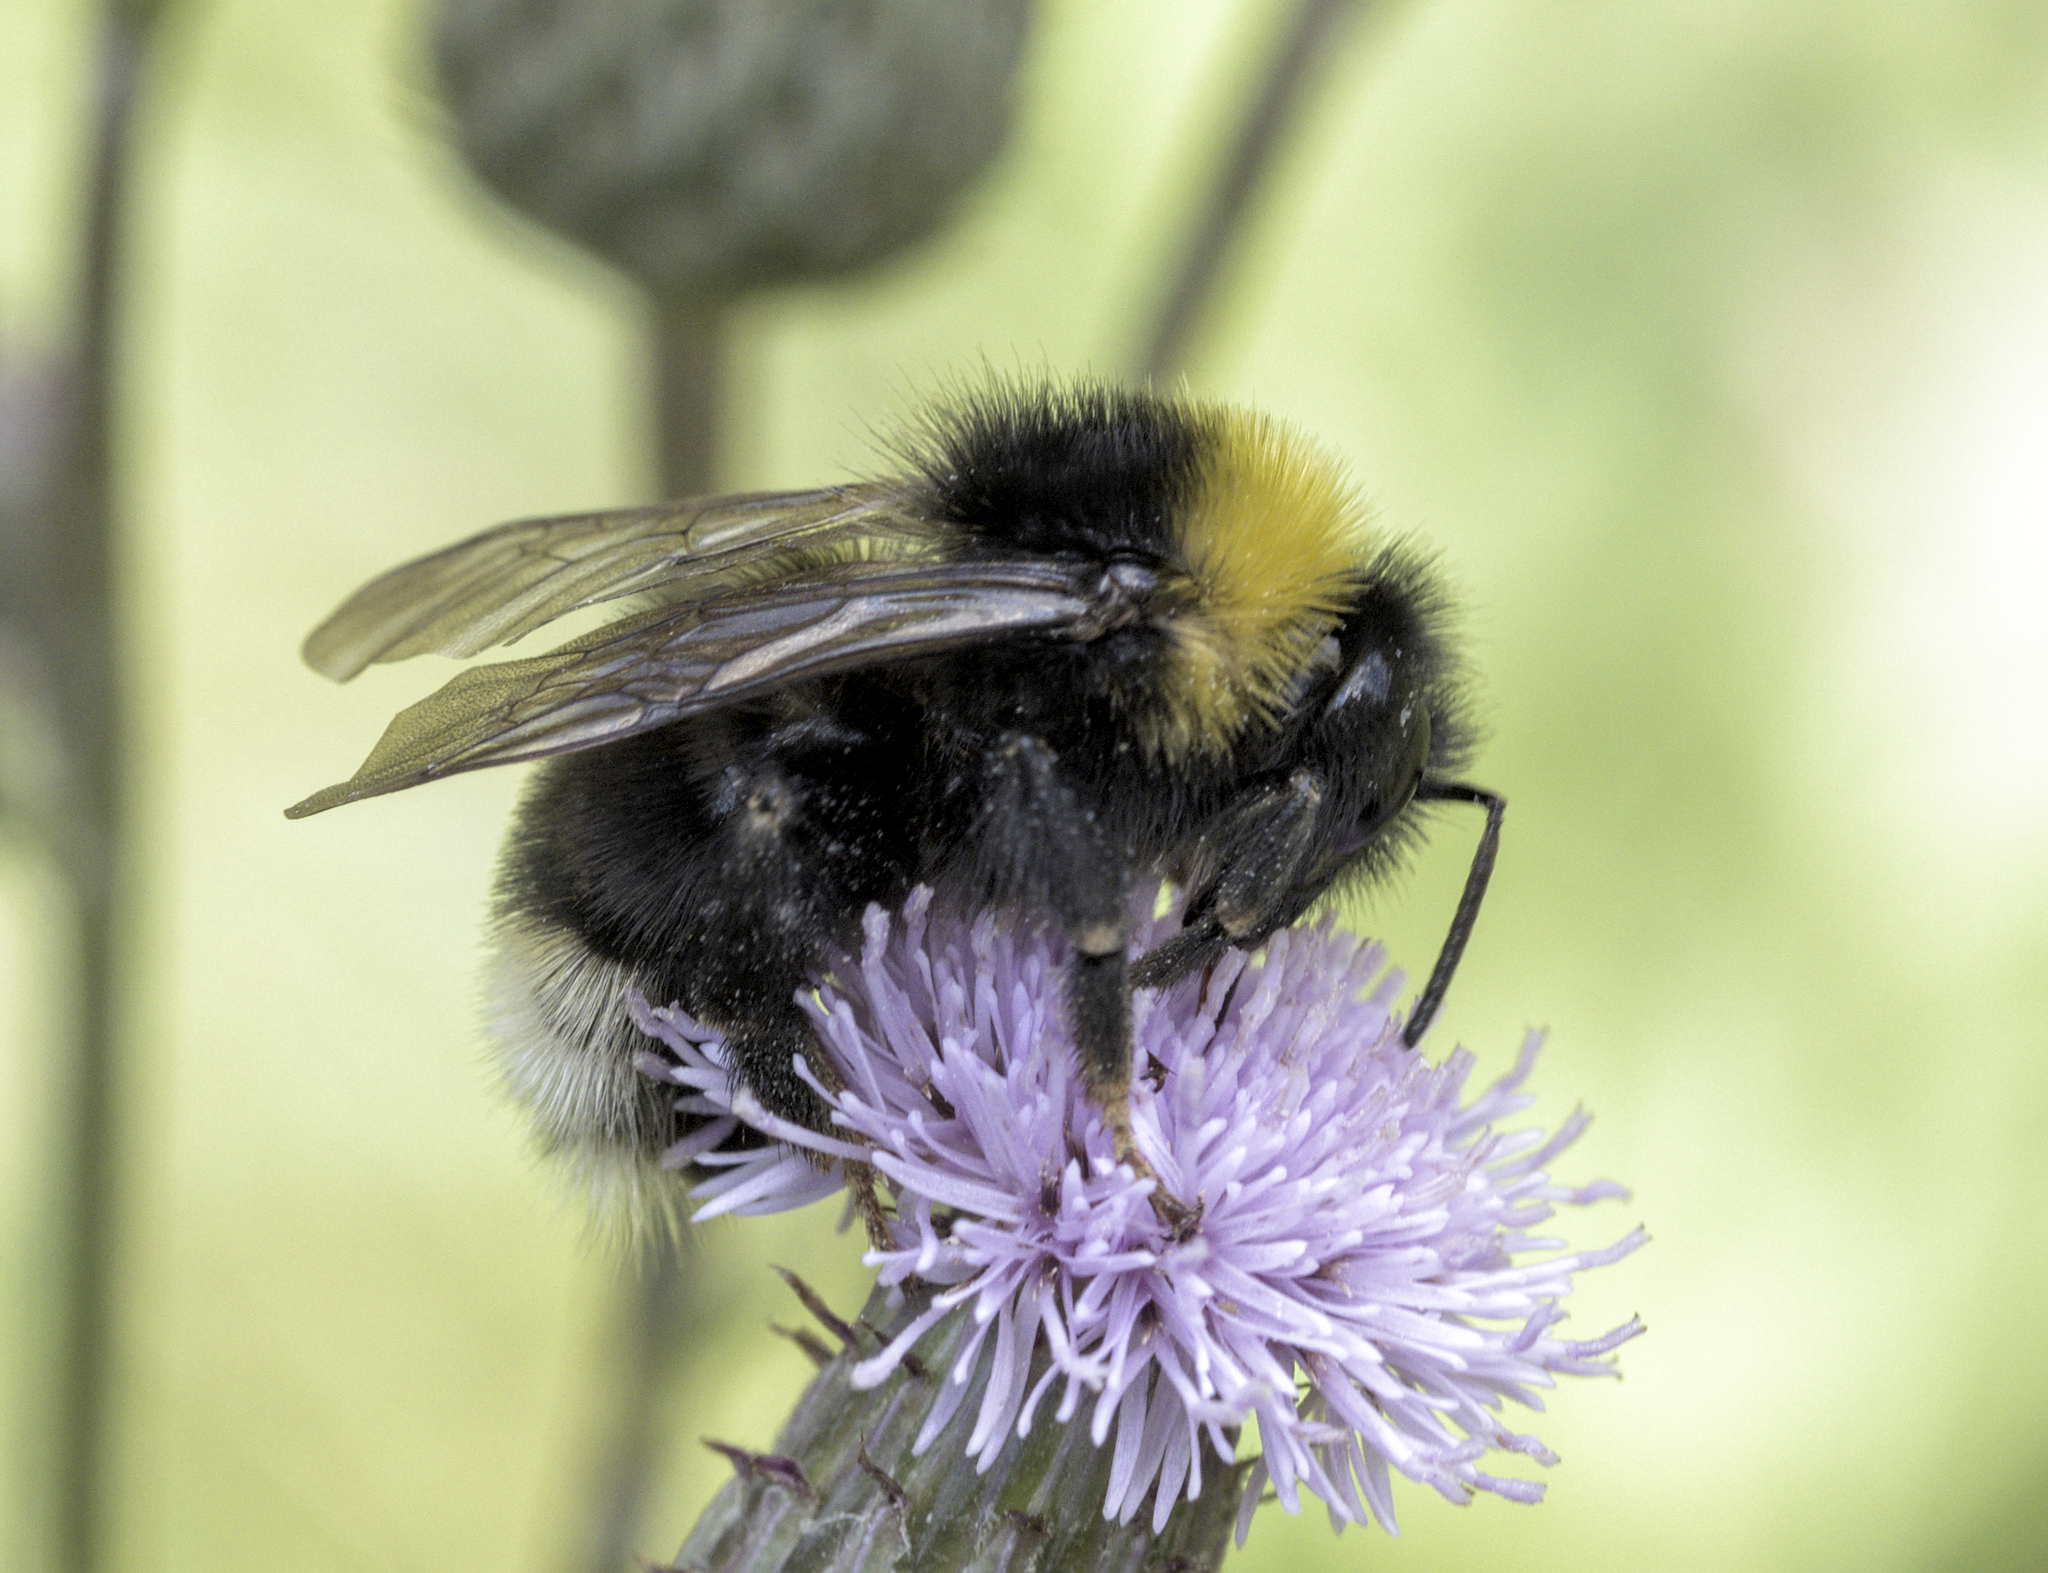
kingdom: Animalia
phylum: Arthropoda
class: Insecta
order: Hymenoptera
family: Apidae
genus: Bombus
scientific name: Bombus bohemicus
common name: Gypsy cuckoo bee
